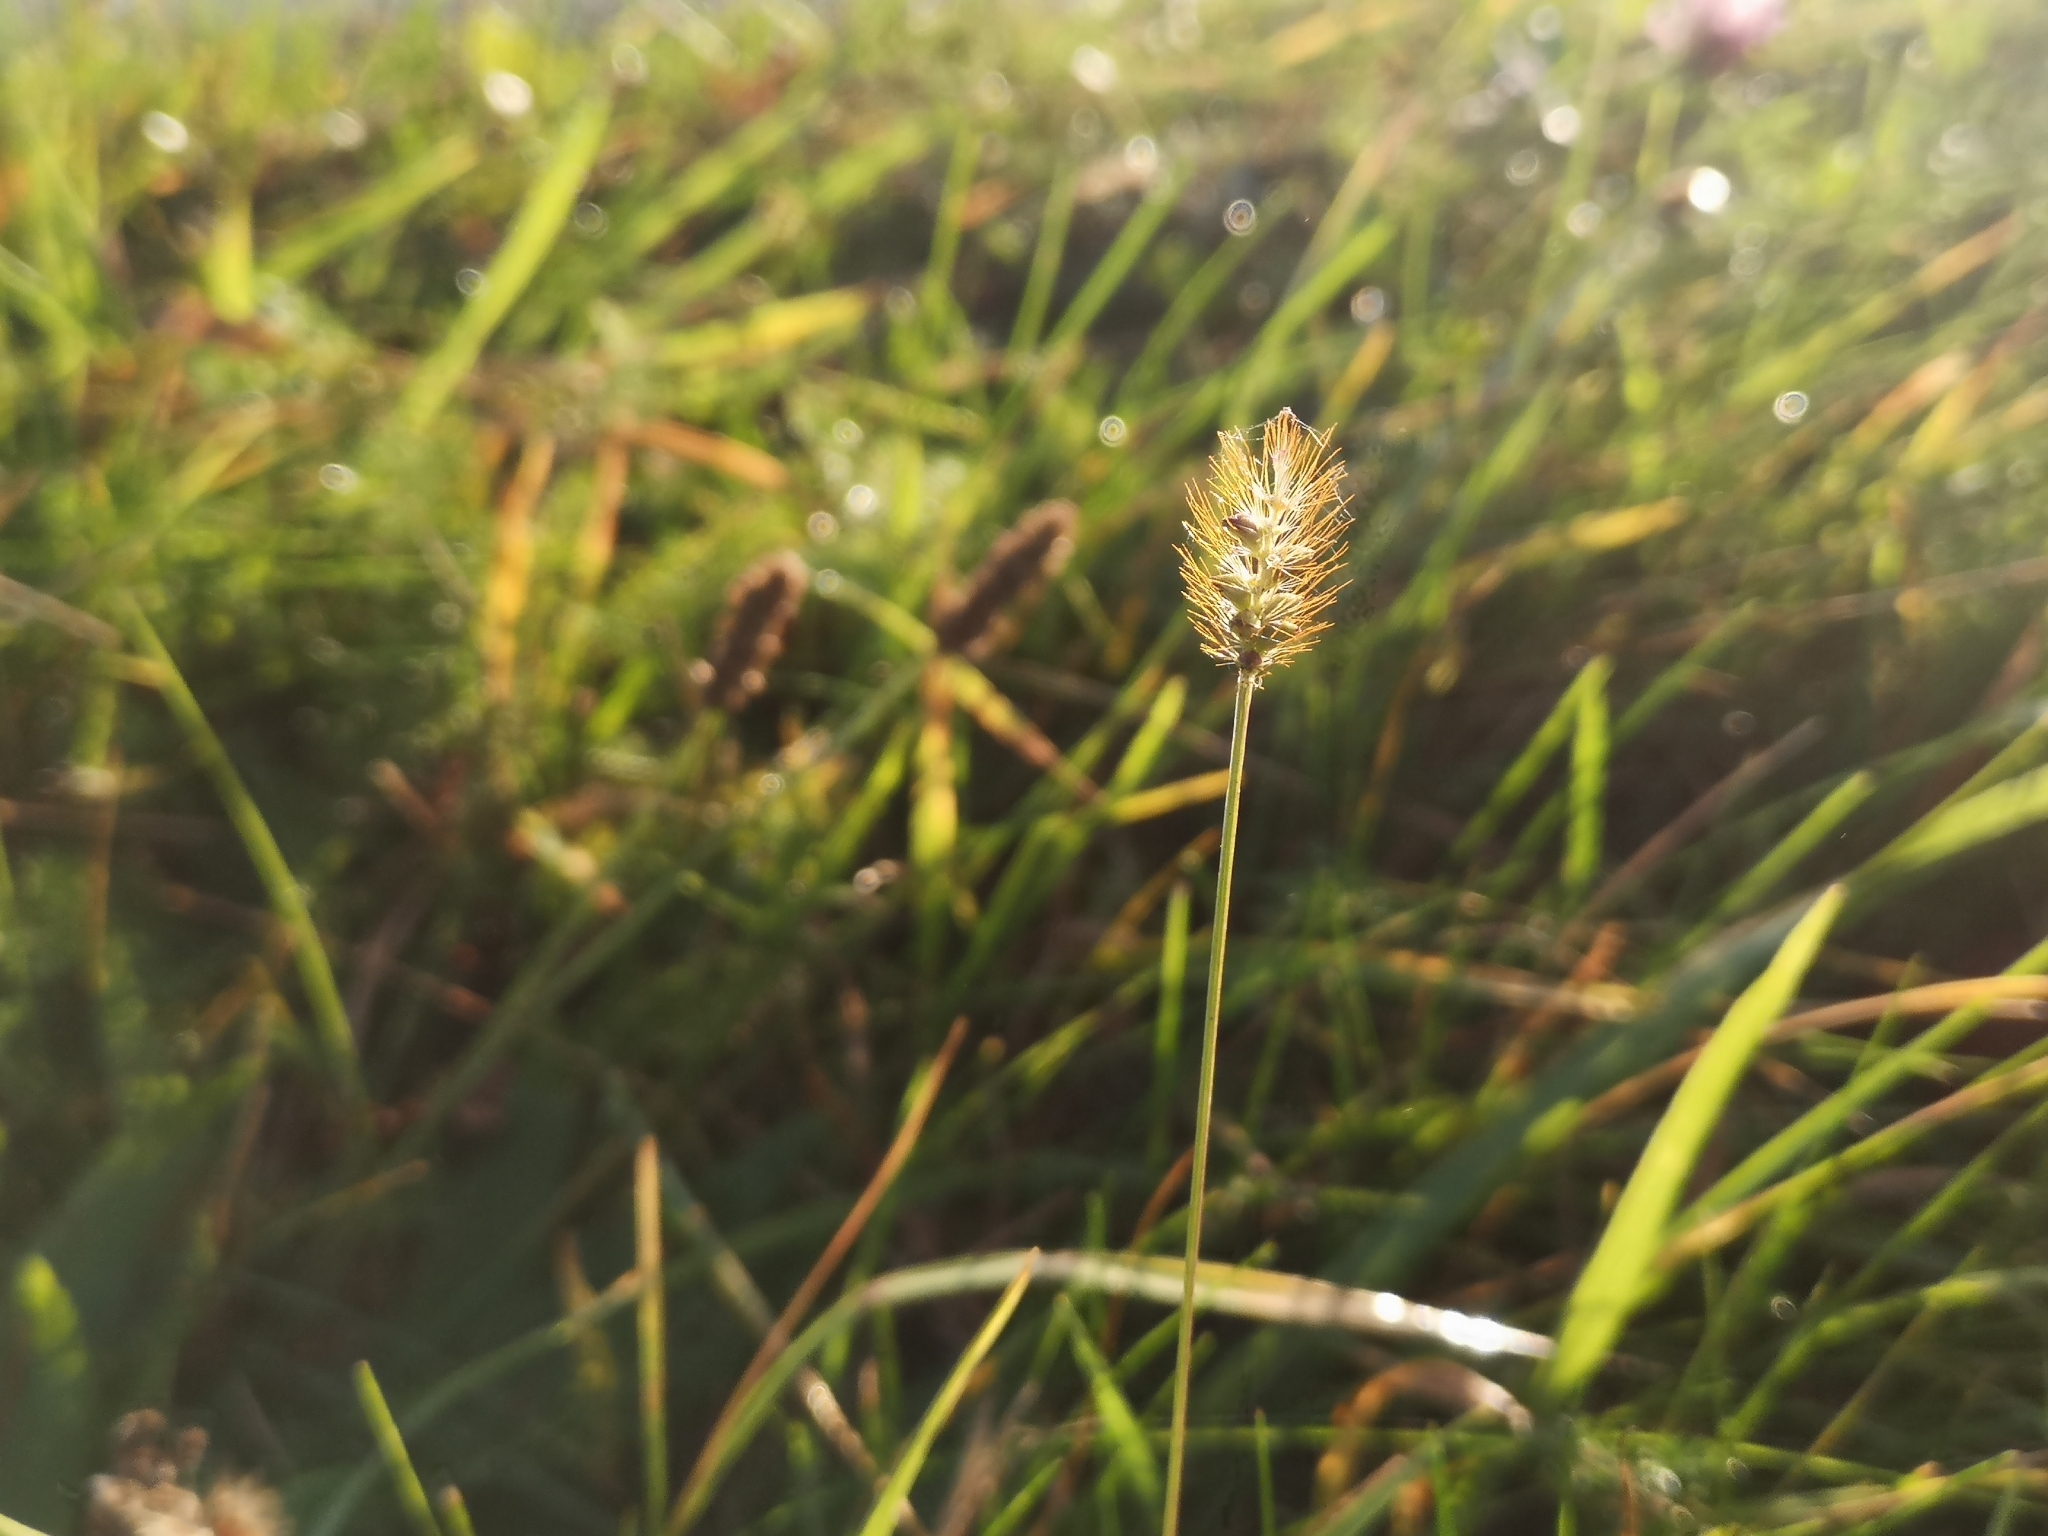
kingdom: Plantae
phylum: Tracheophyta
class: Liliopsida
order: Poales
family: Poaceae
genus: Setaria
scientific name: Setaria pumila
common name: Yellow bristle-grass
